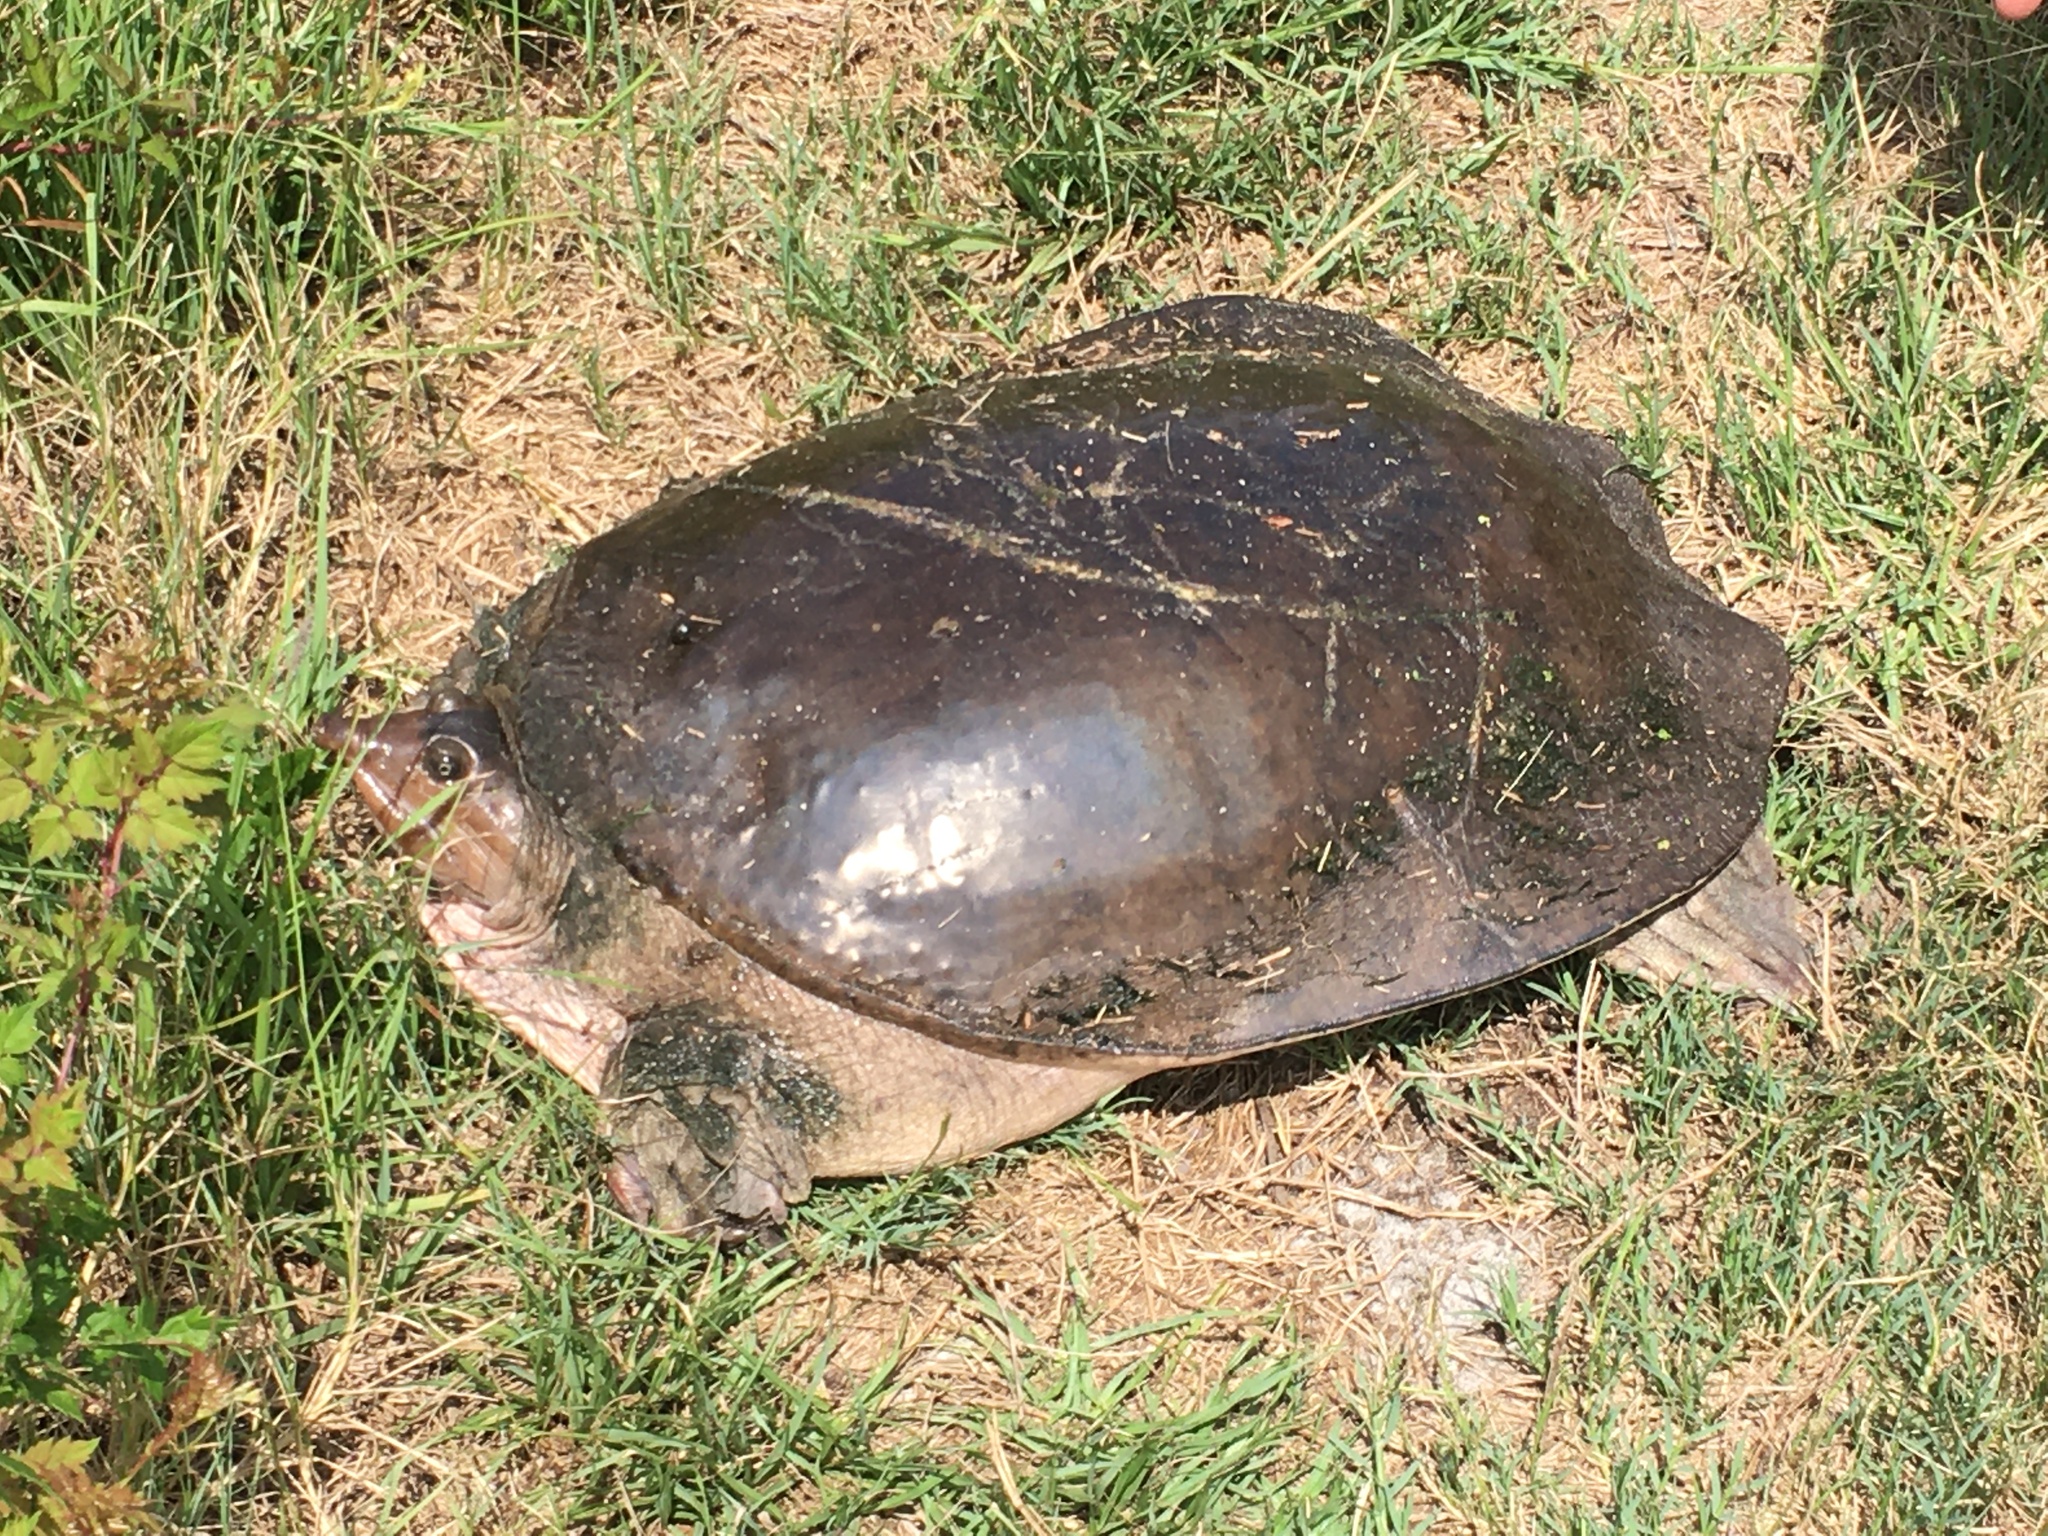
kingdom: Animalia
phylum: Chordata
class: Testudines
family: Trionychidae
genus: Apalone
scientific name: Apalone ferox
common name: Florida softshell turtle
